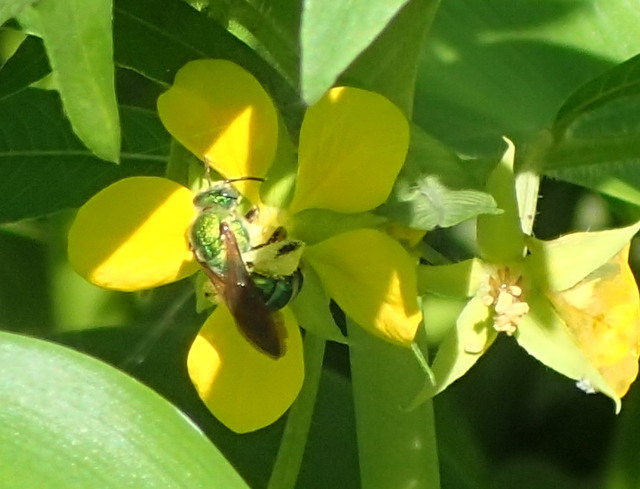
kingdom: Animalia
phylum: Arthropoda
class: Insecta
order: Hymenoptera
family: Halictidae
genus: Agapostemon
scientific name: Agapostemon splendens
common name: Brown-winged striped sweat bee
